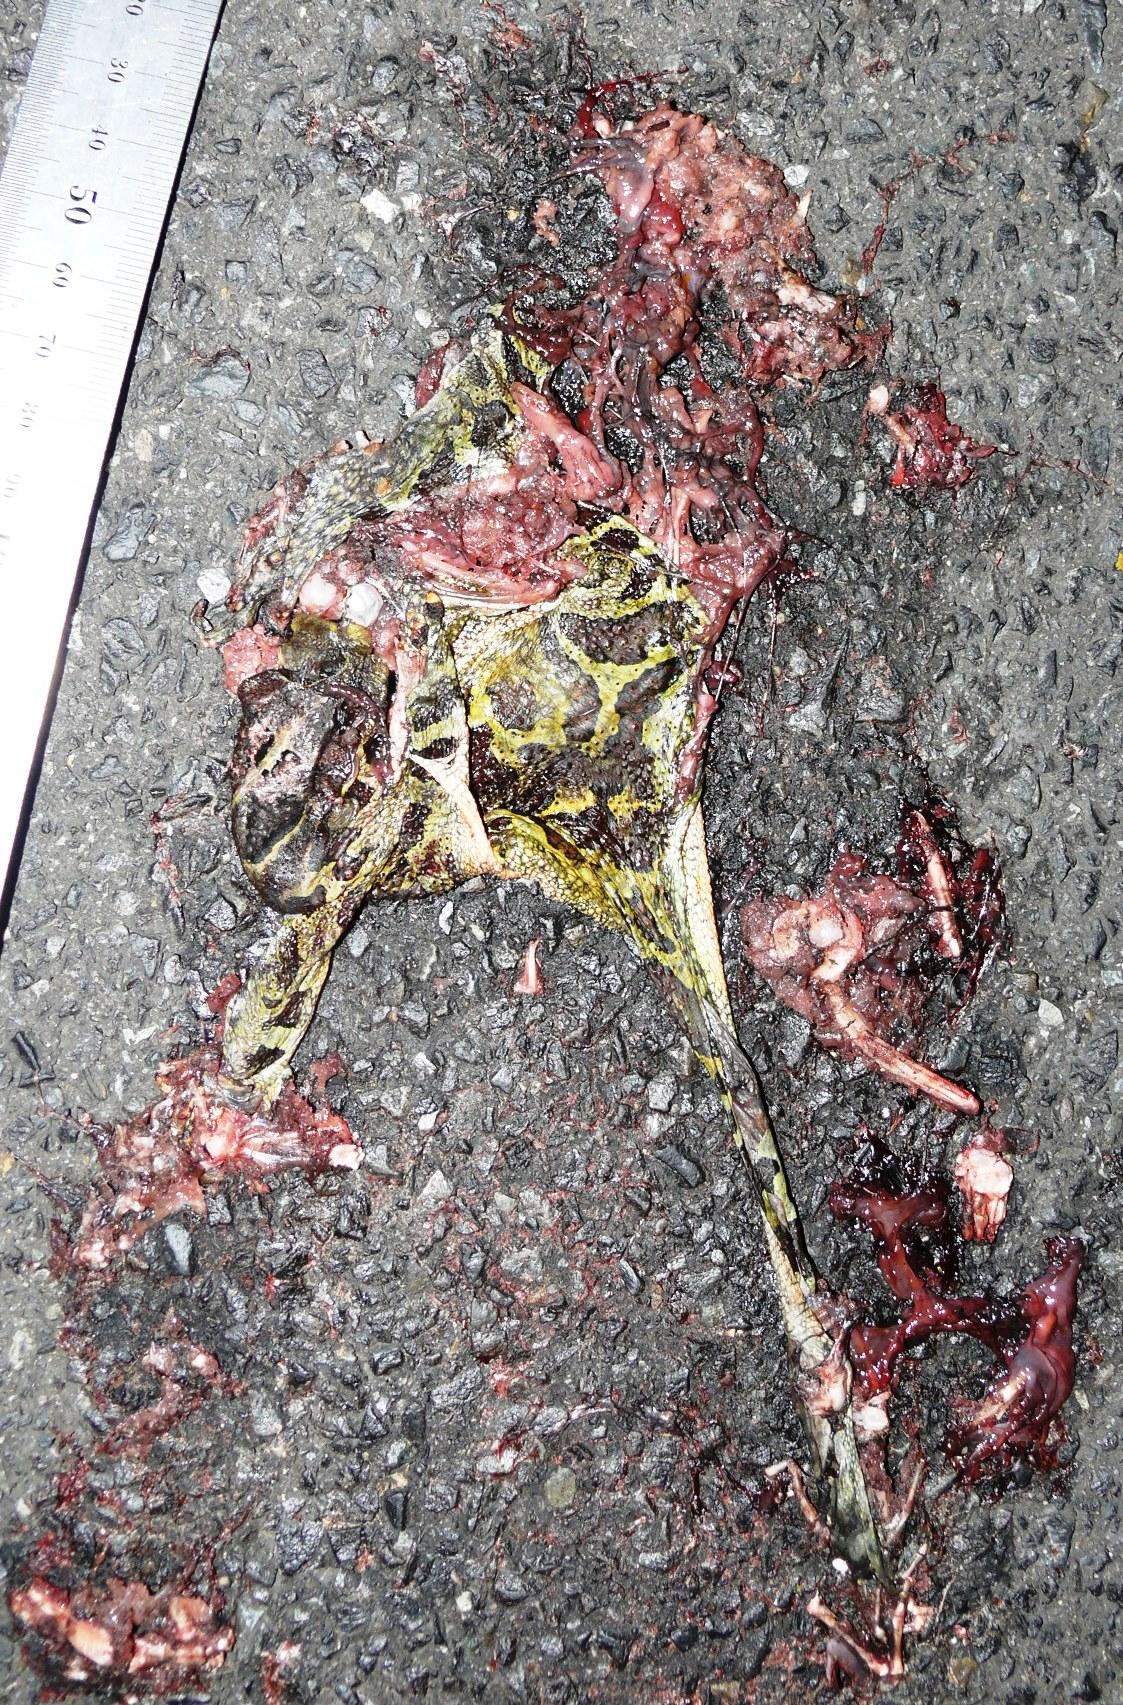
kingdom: Animalia
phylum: Chordata
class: Amphibia
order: Anura
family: Bufonidae
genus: Sclerophrys
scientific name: Sclerophrys pantherina
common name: Panther toad
